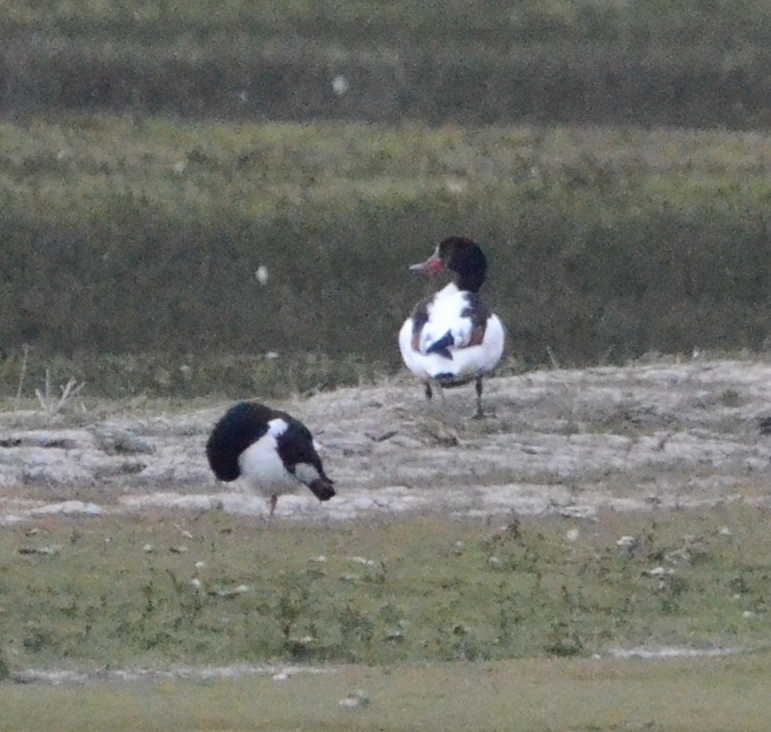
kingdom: Animalia
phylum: Chordata
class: Aves
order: Anseriformes
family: Anatidae
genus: Tadorna
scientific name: Tadorna tadorna
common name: Common shelduck
